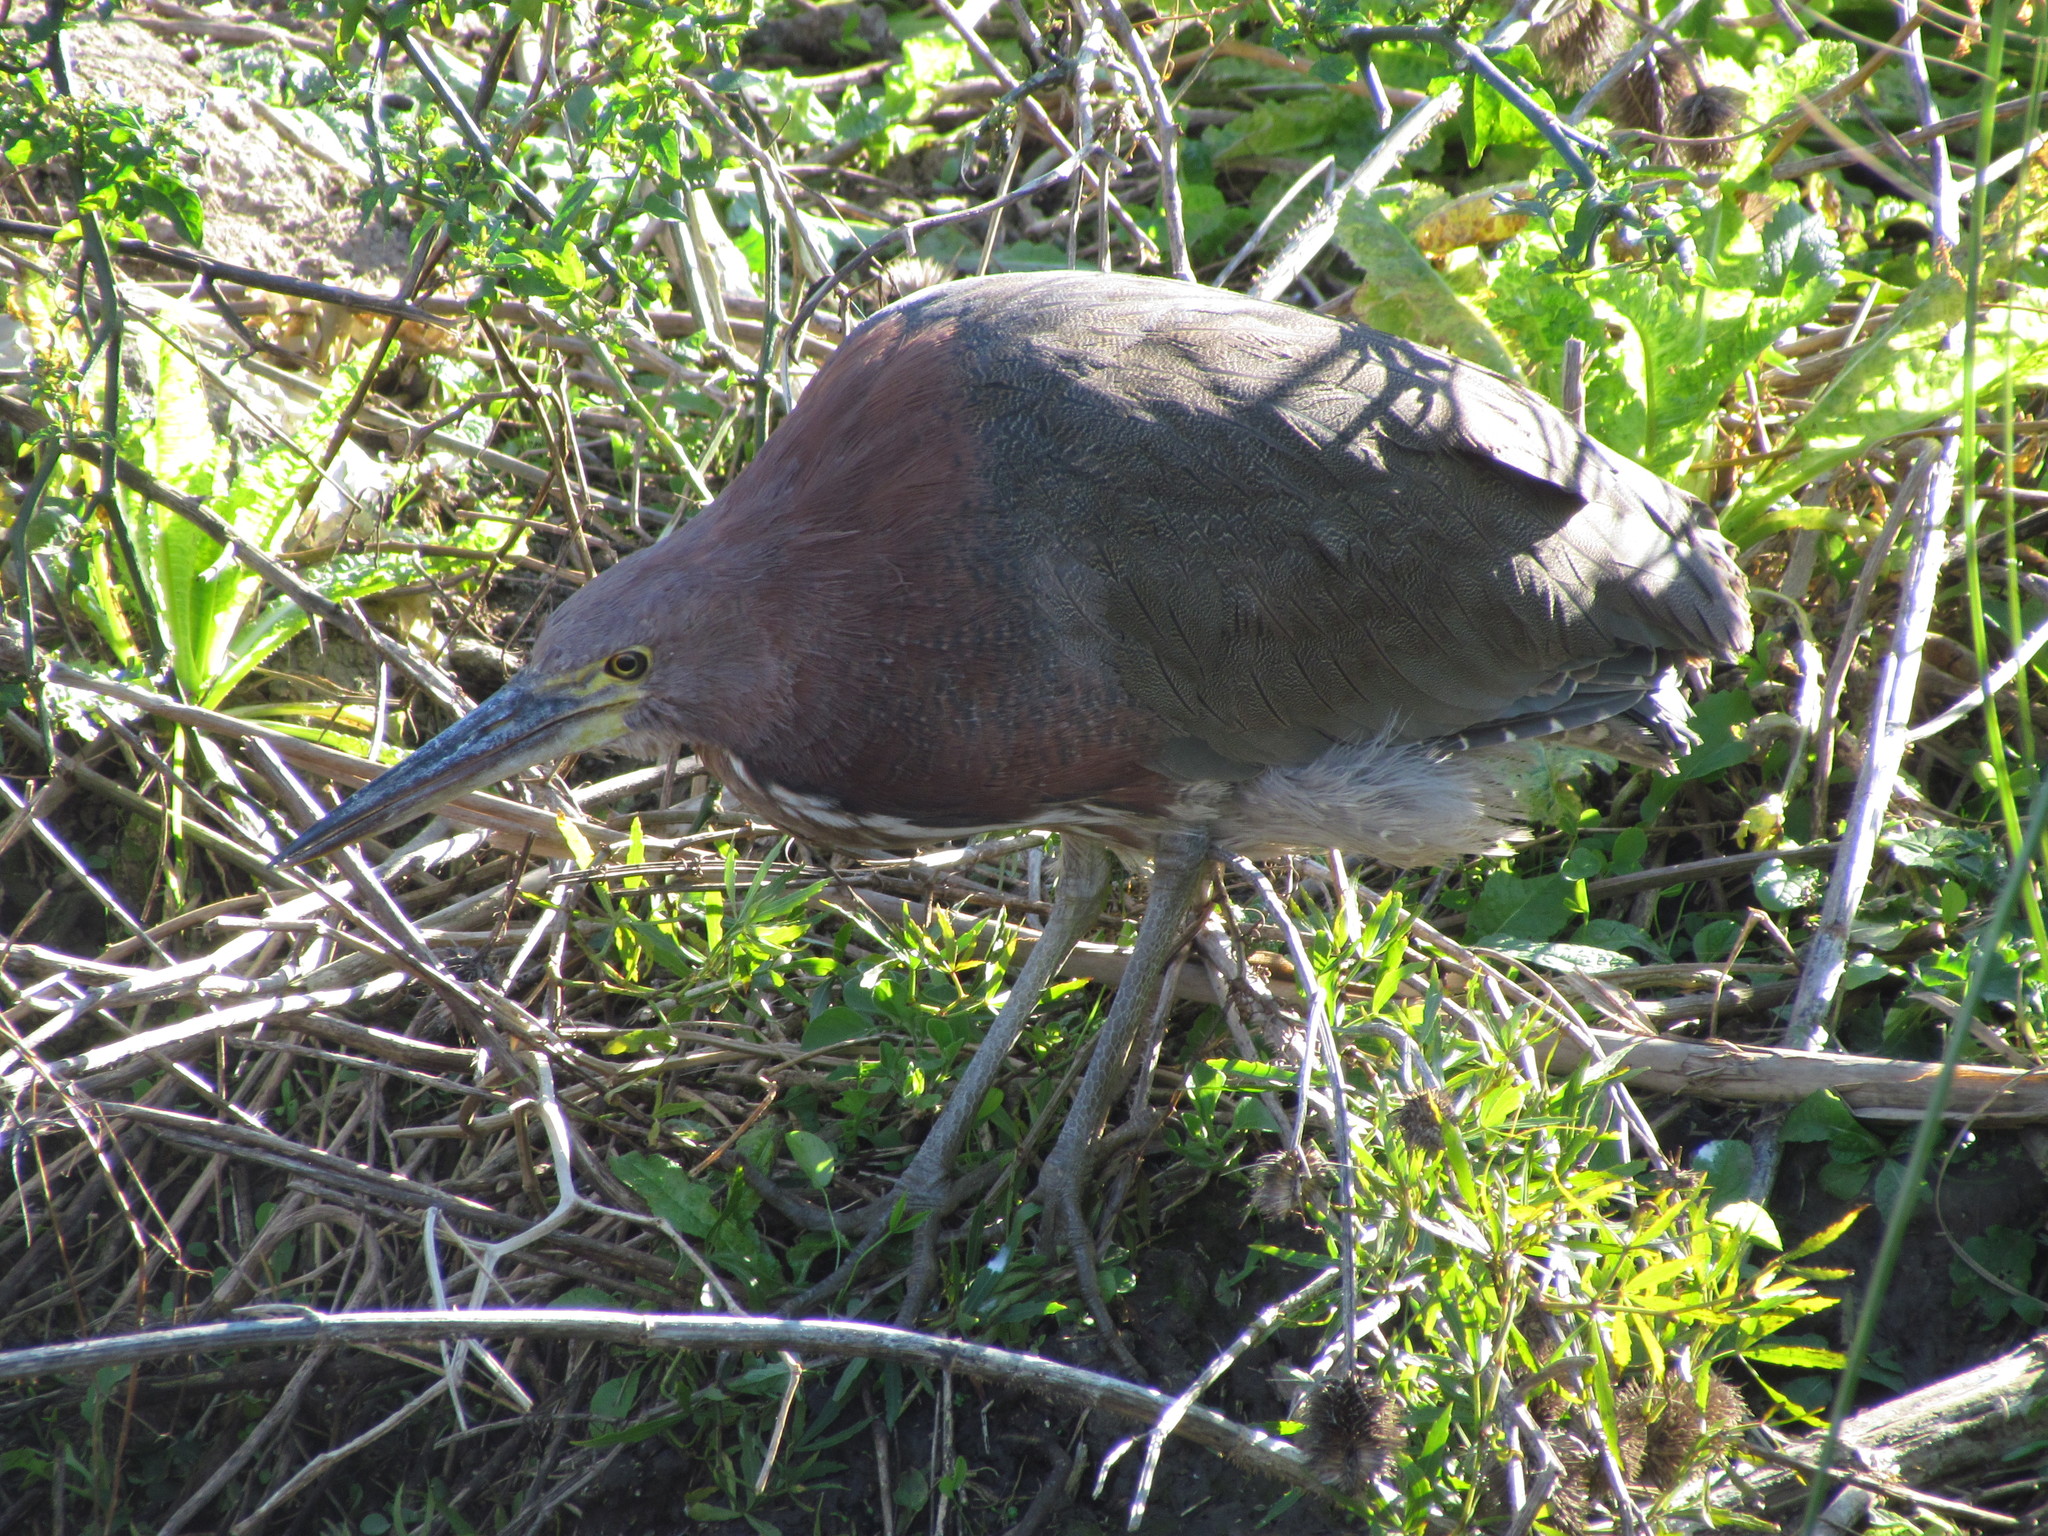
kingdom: Animalia
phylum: Chordata
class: Aves
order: Pelecaniformes
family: Ardeidae
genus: Tigrisoma
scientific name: Tigrisoma lineatum
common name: Rufescent tiger-heron
